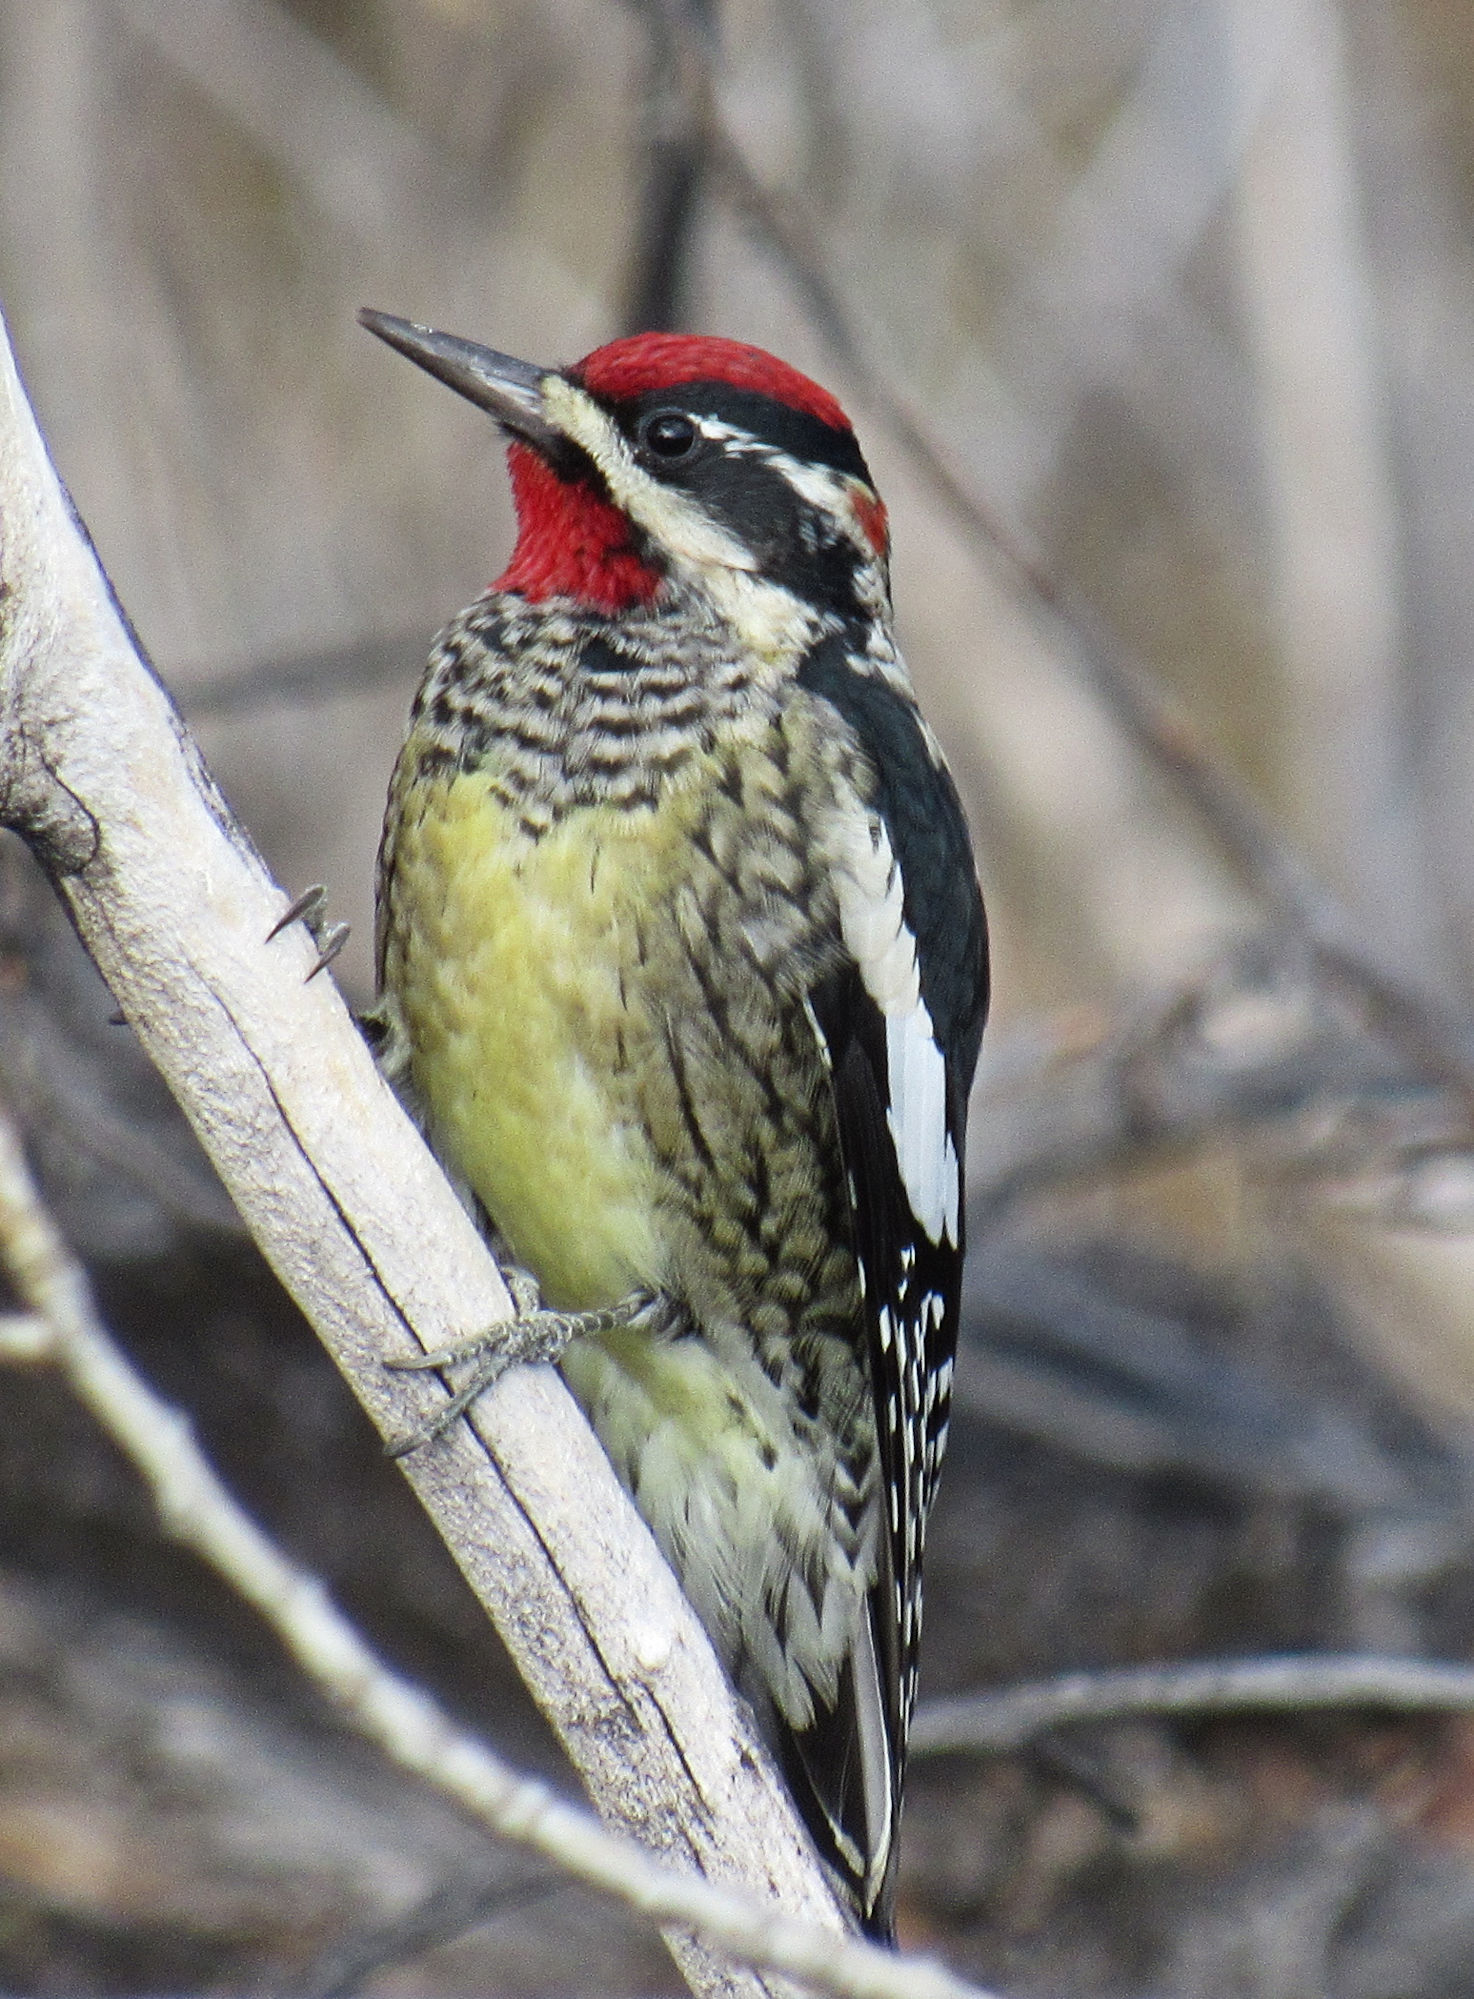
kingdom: Animalia
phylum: Chordata
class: Aves
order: Piciformes
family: Picidae
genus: Sphyrapicus
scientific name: Sphyrapicus nuchalis
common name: Red-naped sapsucker
